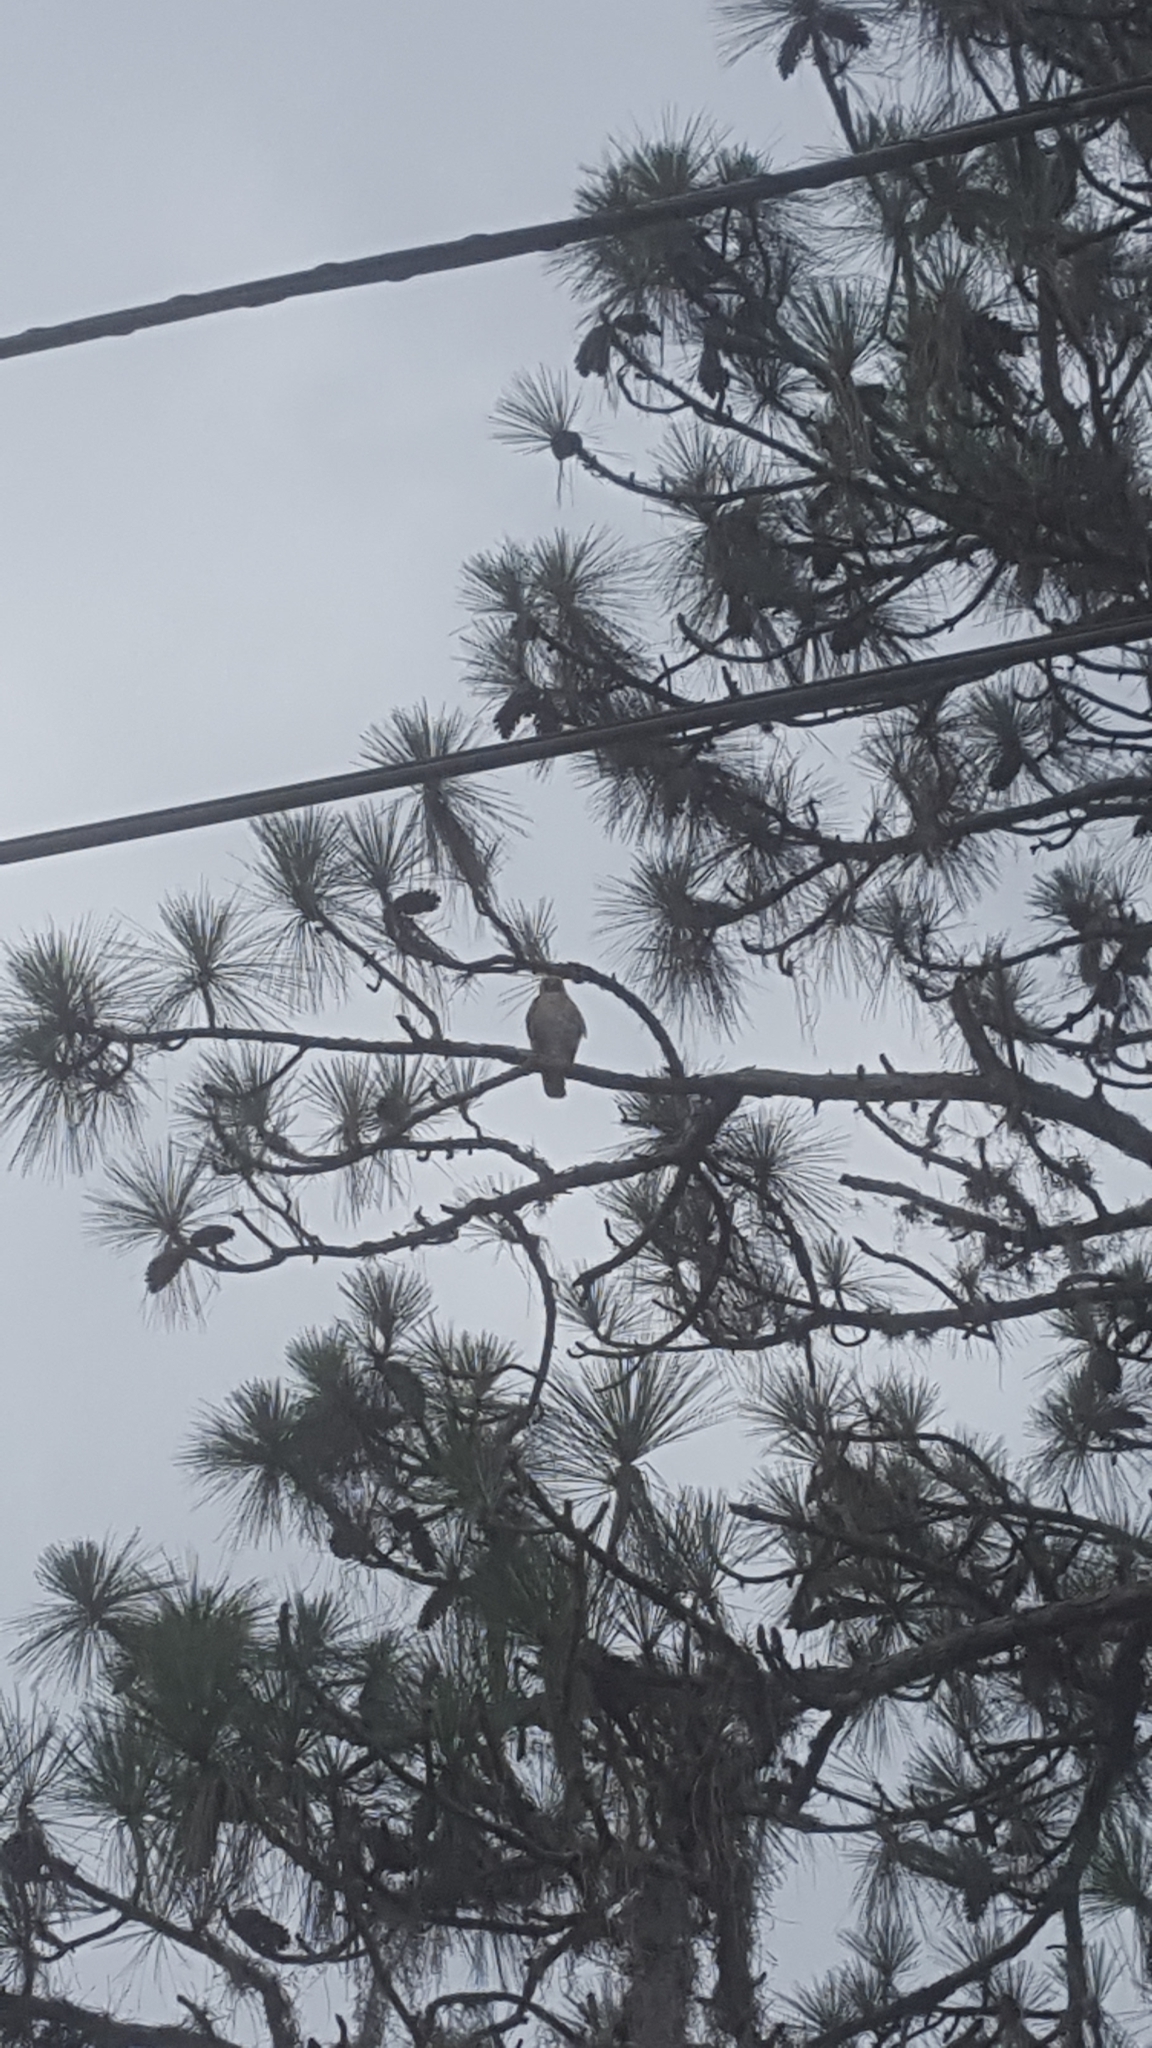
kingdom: Animalia
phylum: Chordata
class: Aves
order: Accipitriformes
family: Accipitridae
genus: Buteo
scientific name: Buteo lineatus
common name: Red-shouldered hawk
